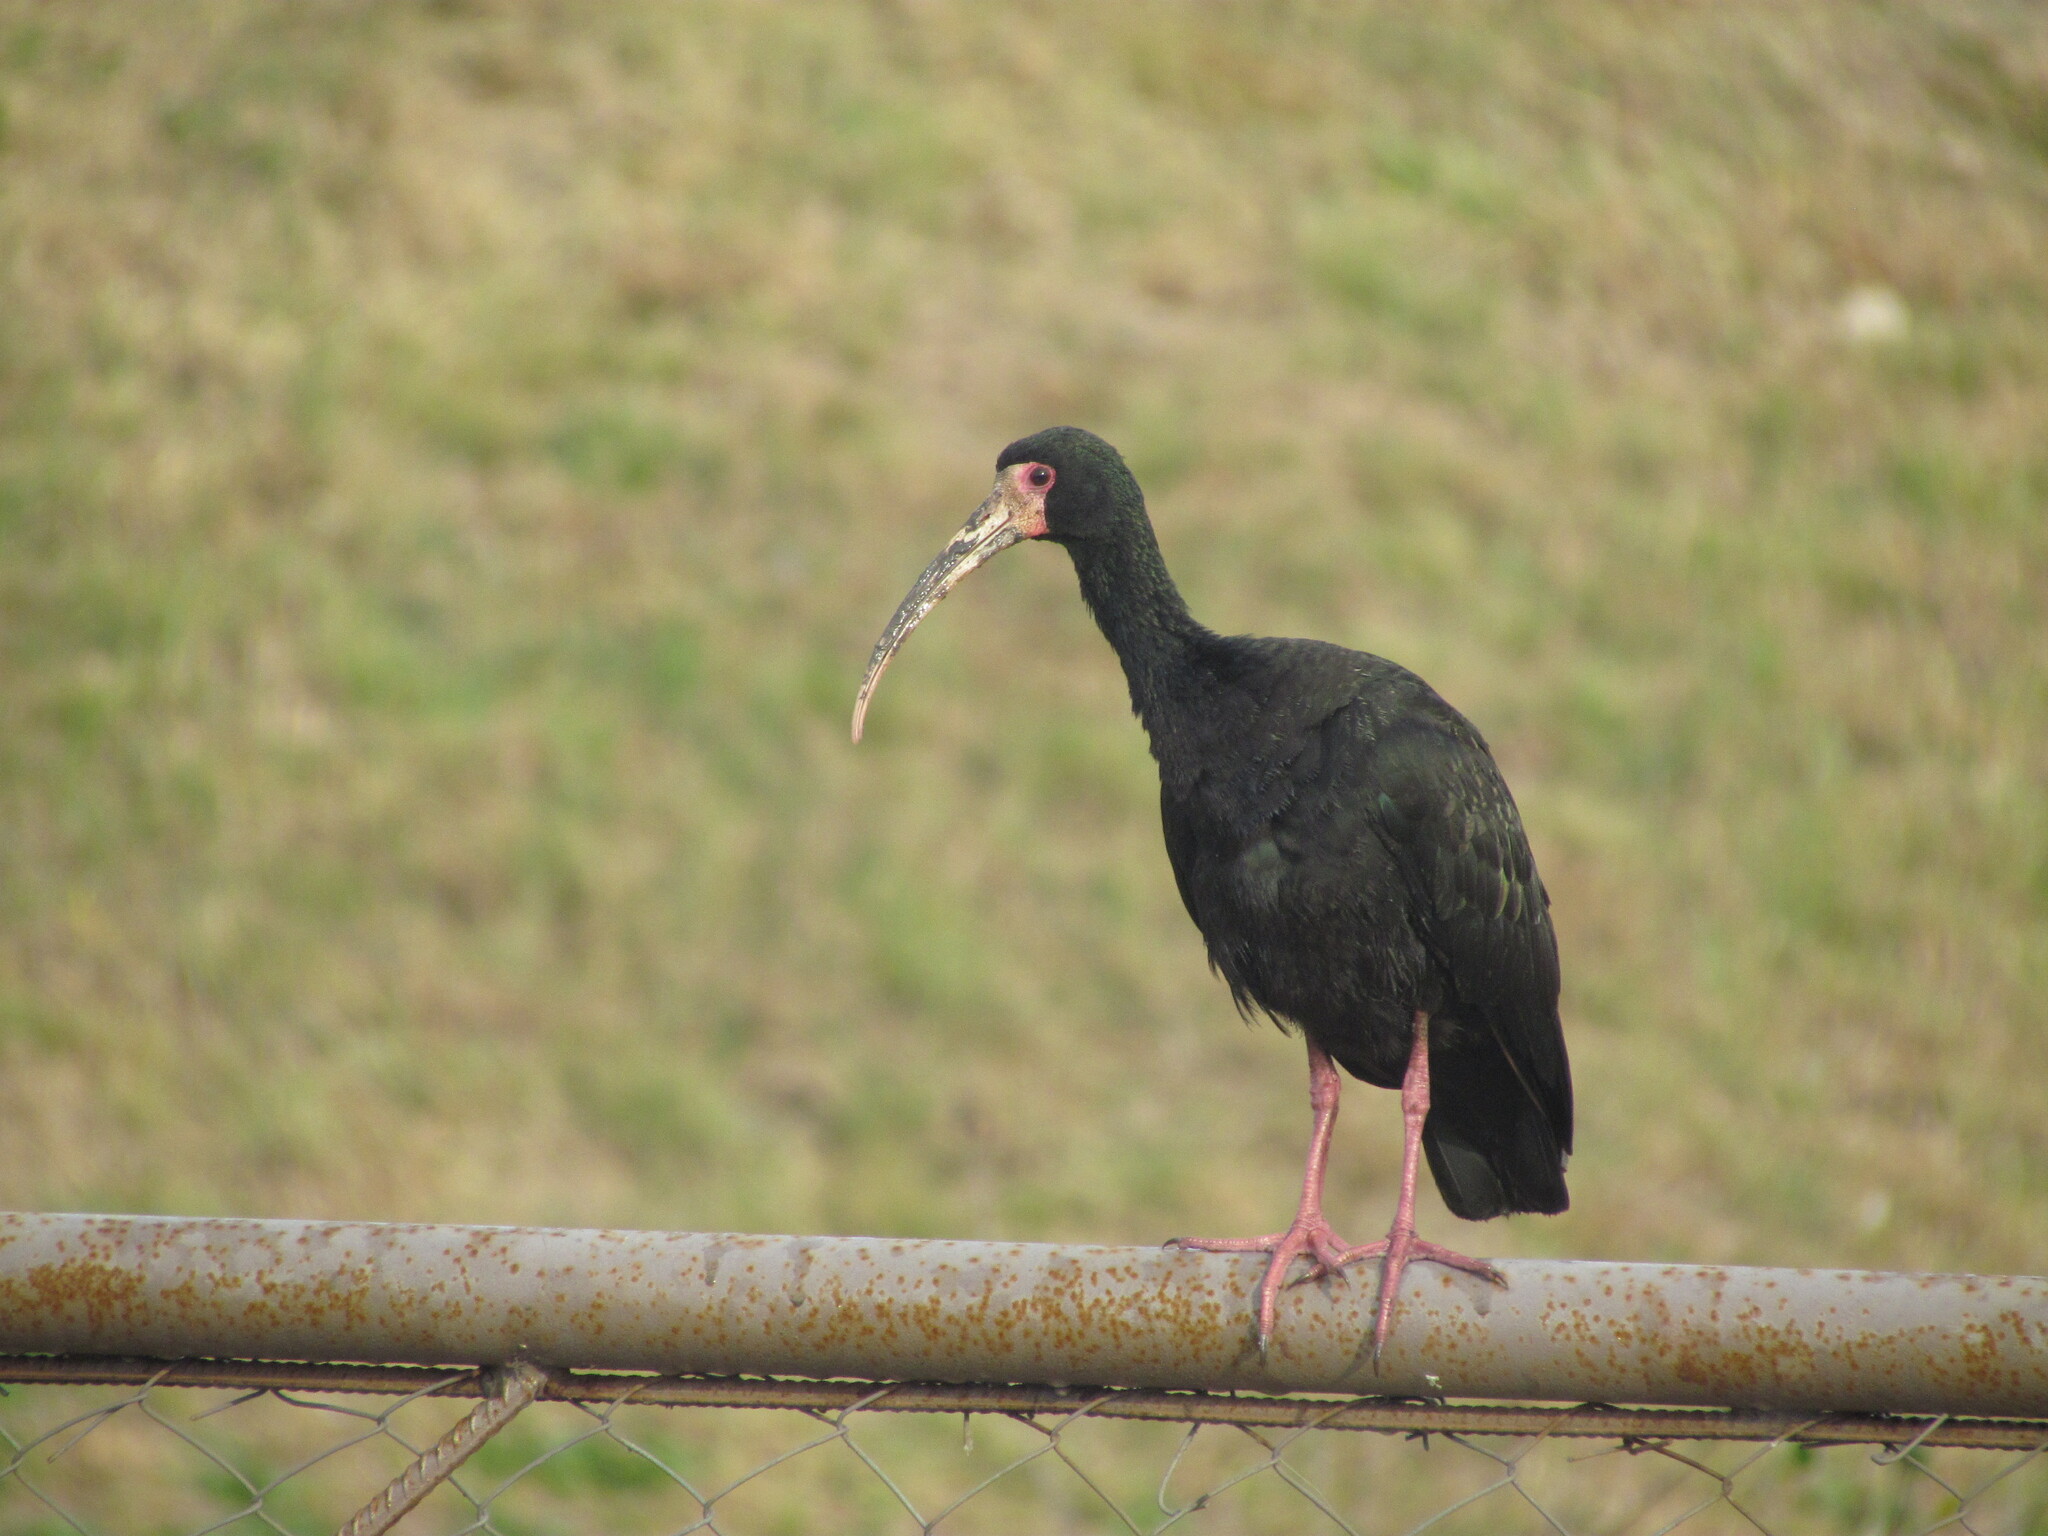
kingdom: Animalia
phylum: Chordata
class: Aves
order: Pelecaniformes
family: Threskiornithidae
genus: Phimosus
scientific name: Phimosus infuscatus
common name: Bare-faced ibis
